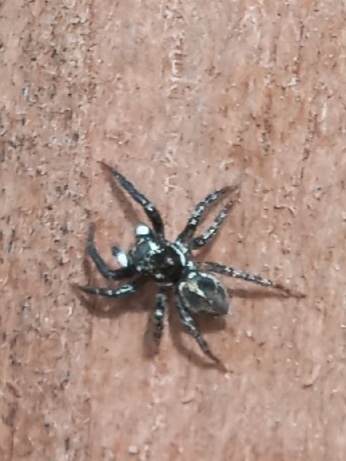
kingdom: Animalia
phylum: Arthropoda
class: Arachnida
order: Araneae
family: Salticidae
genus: Anasaitis
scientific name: Anasaitis canosa
